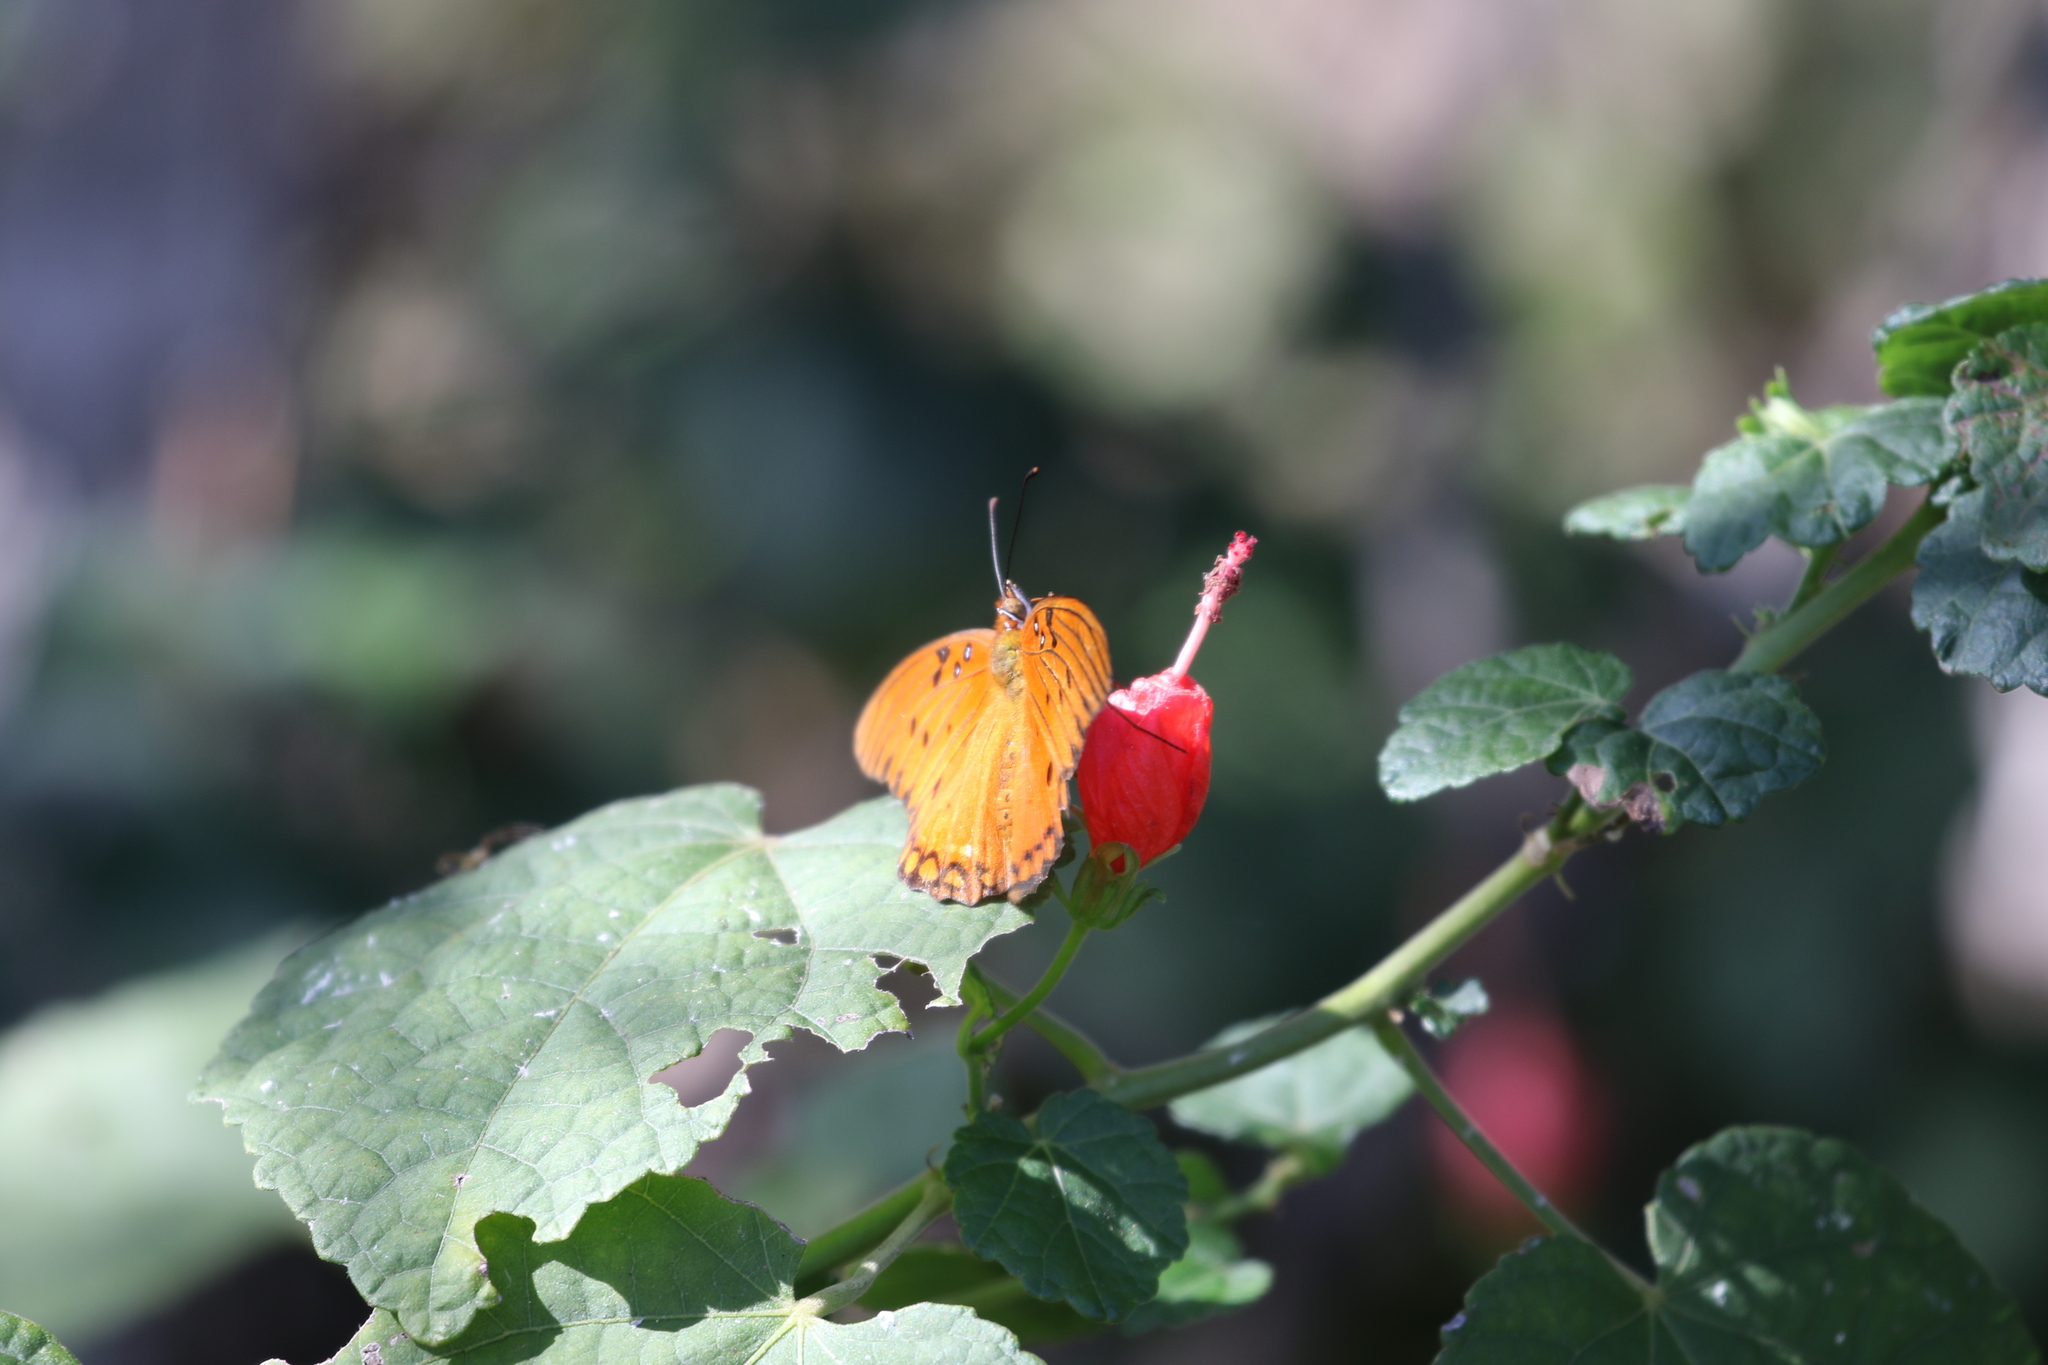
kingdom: Animalia
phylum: Arthropoda
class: Insecta
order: Lepidoptera
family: Nymphalidae
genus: Dione
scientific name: Dione vanillae
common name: Gulf fritillary
